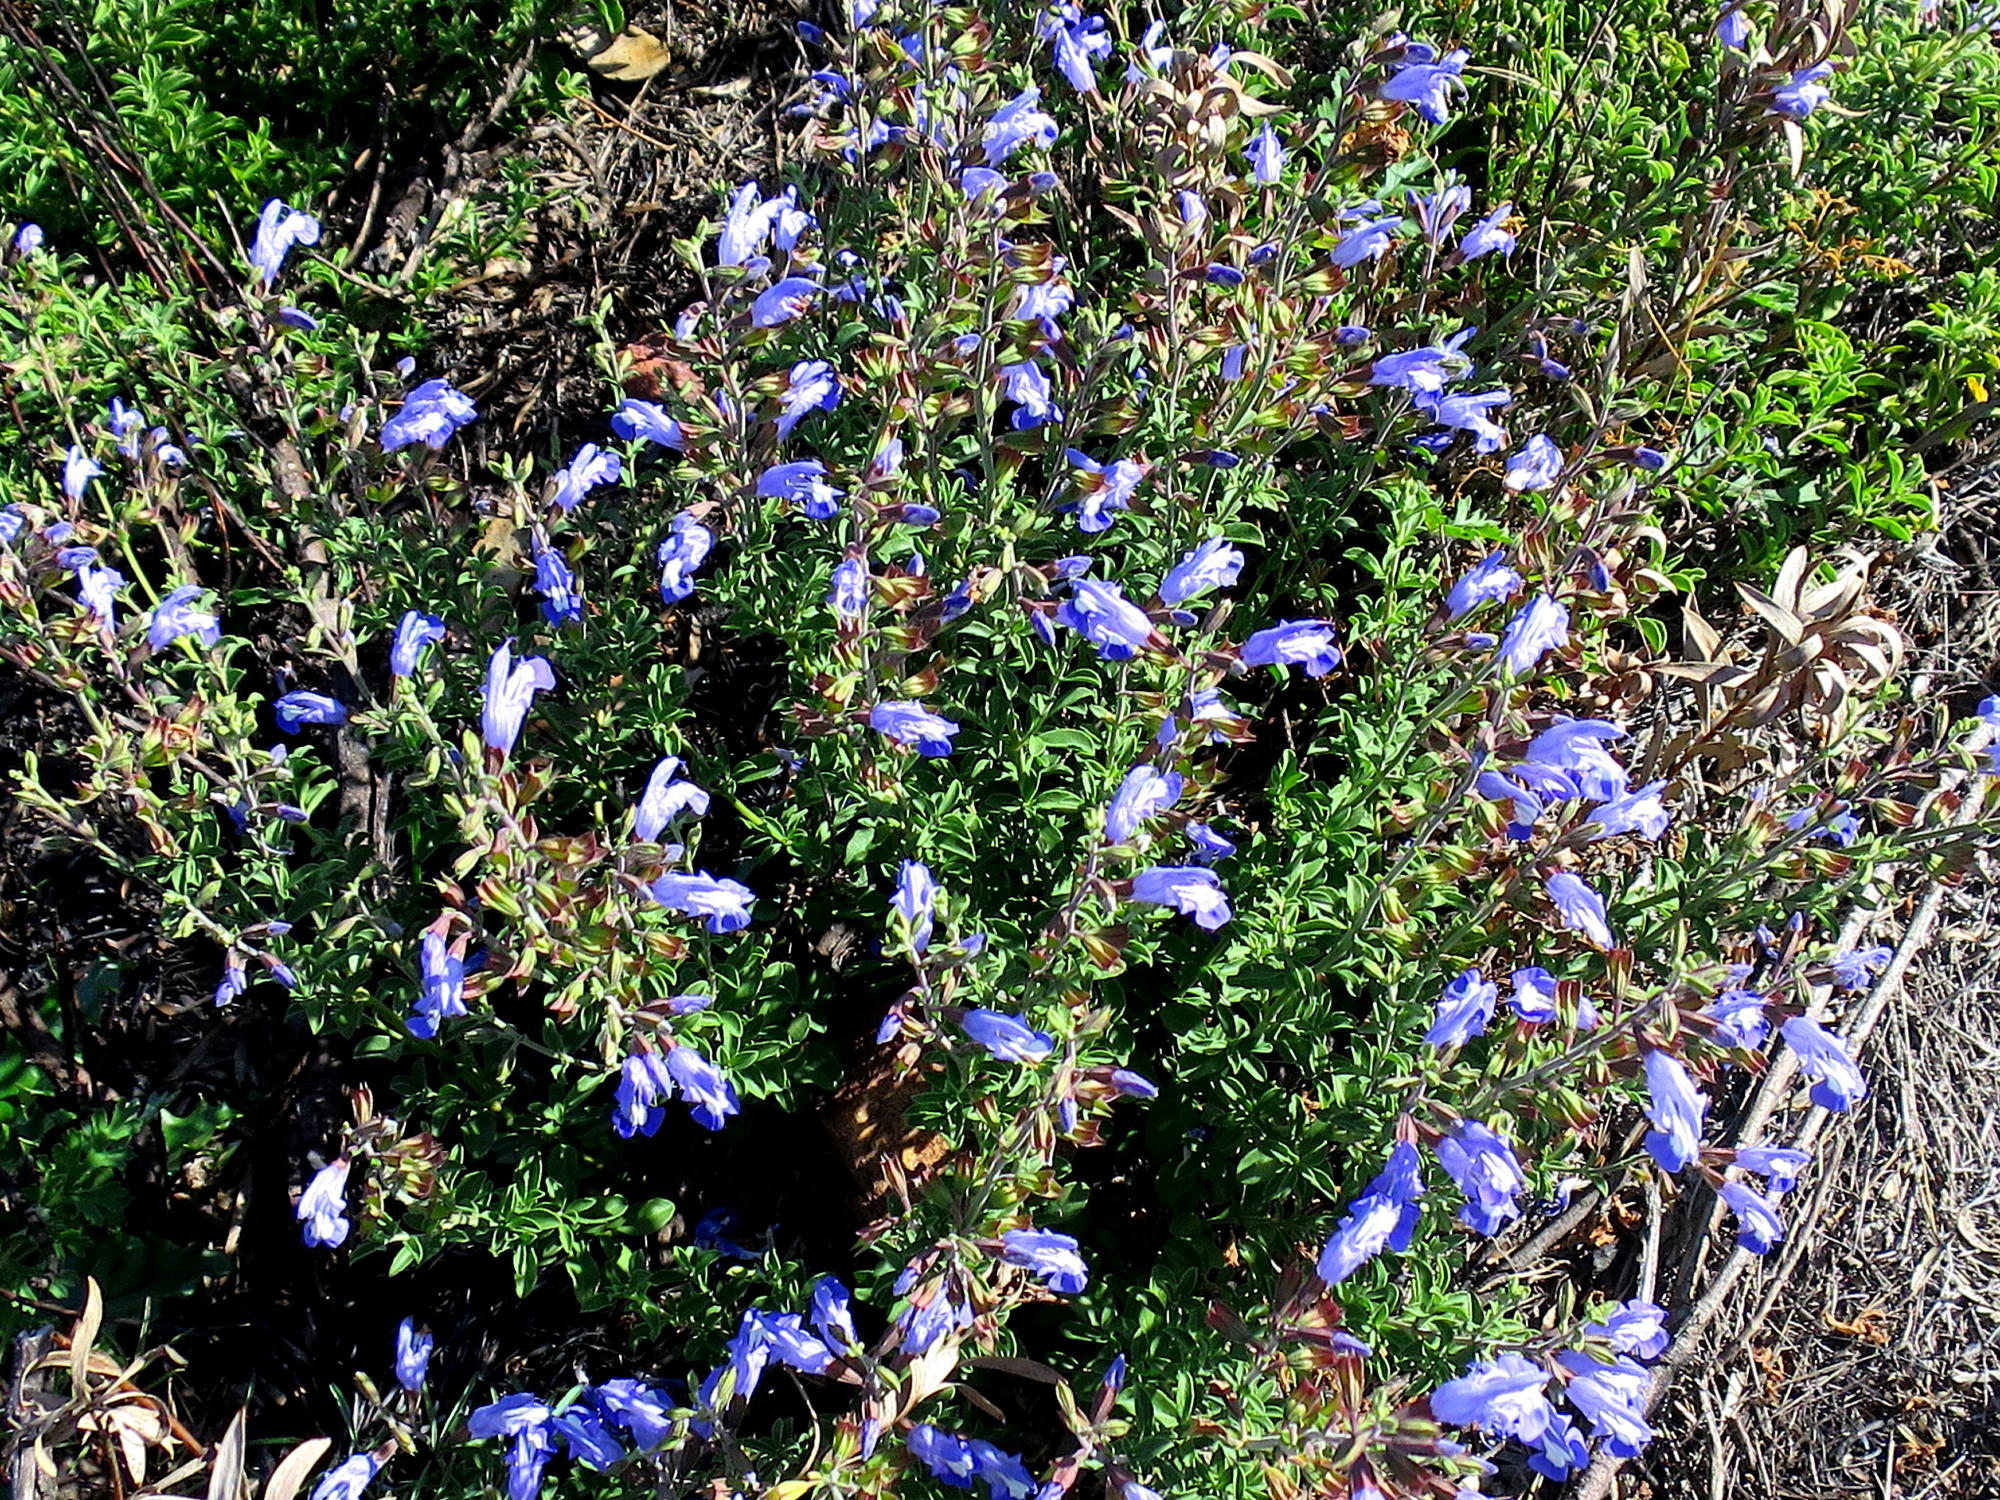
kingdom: Plantae
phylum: Tracheophyta
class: Magnoliopsida
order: Lamiales
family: Lamiaceae
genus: Salvia
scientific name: Salvia muirii
